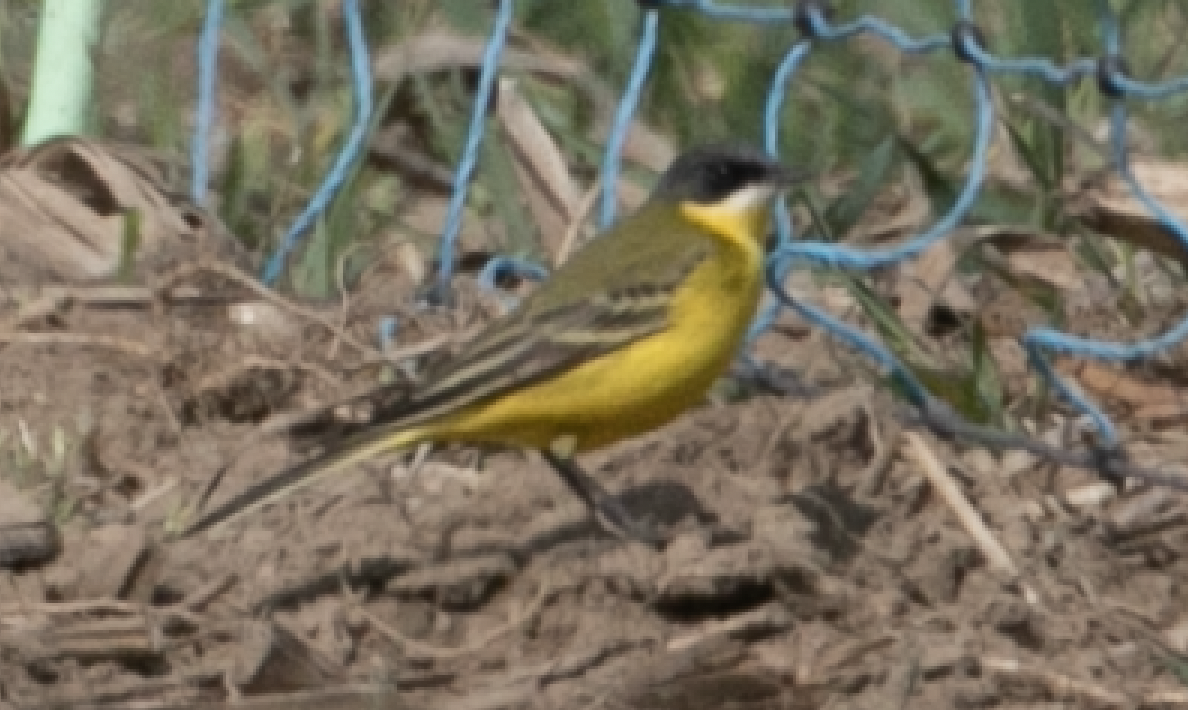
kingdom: Animalia
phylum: Chordata
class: Aves
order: Passeriformes
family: Motacillidae
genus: Motacilla
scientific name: Motacilla flava
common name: Western yellow wagtail
